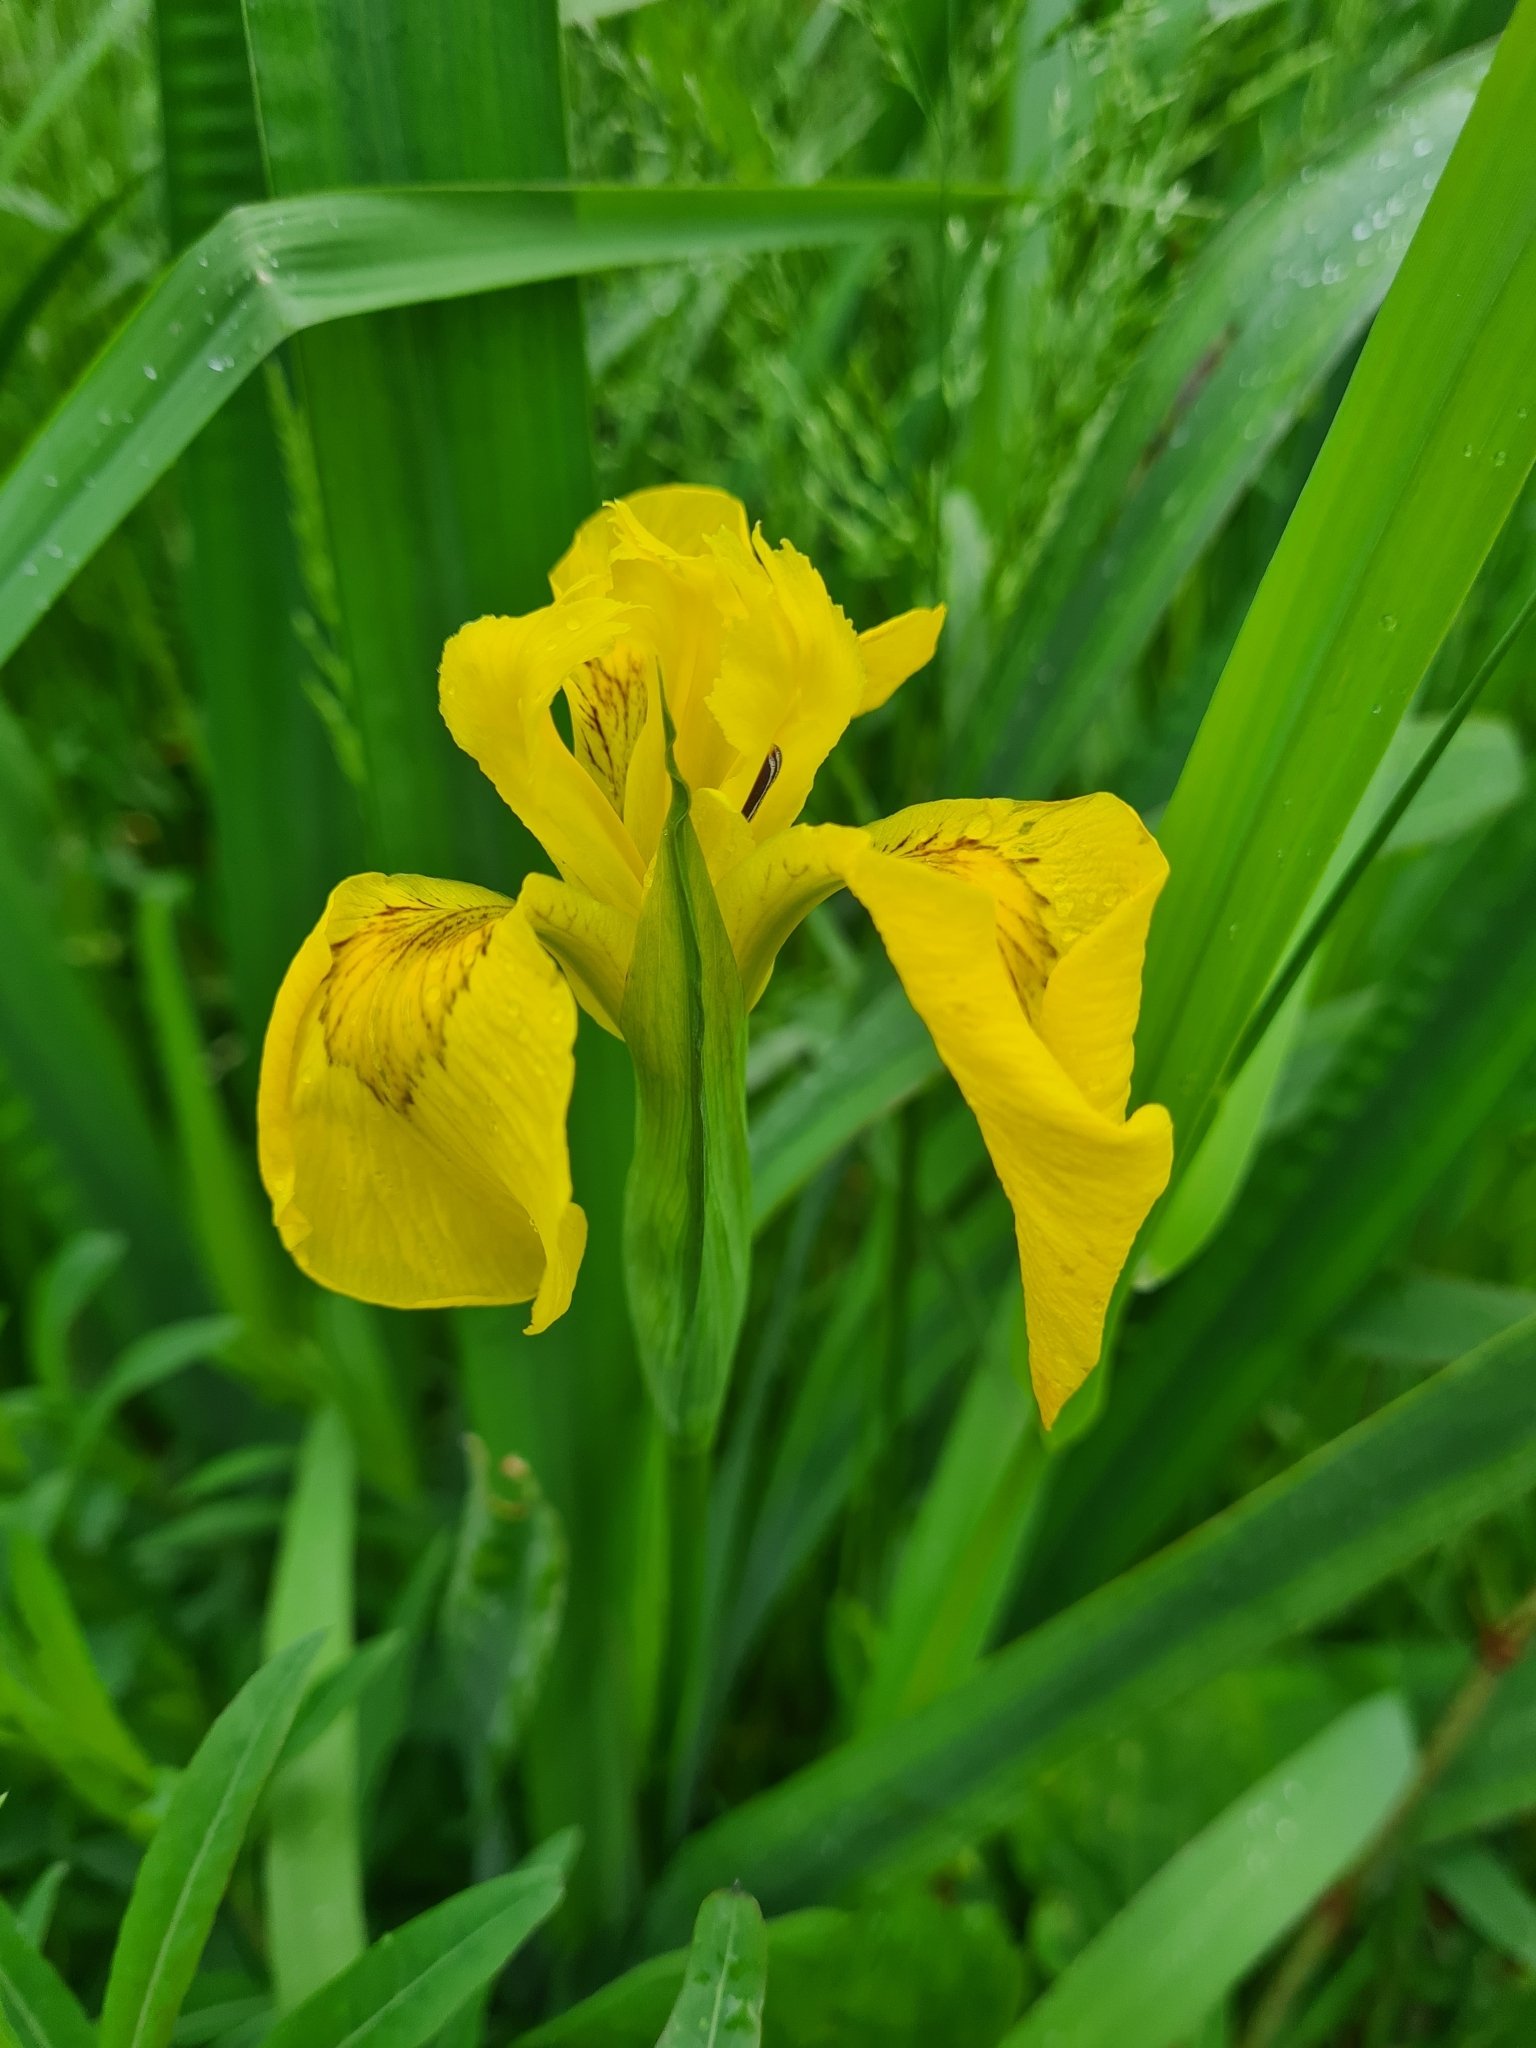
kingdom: Plantae
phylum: Tracheophyta
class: Liliopsida
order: Asparagales
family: Iridaceae
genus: Iris
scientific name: Iris pseudacorus
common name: Yellow flag
